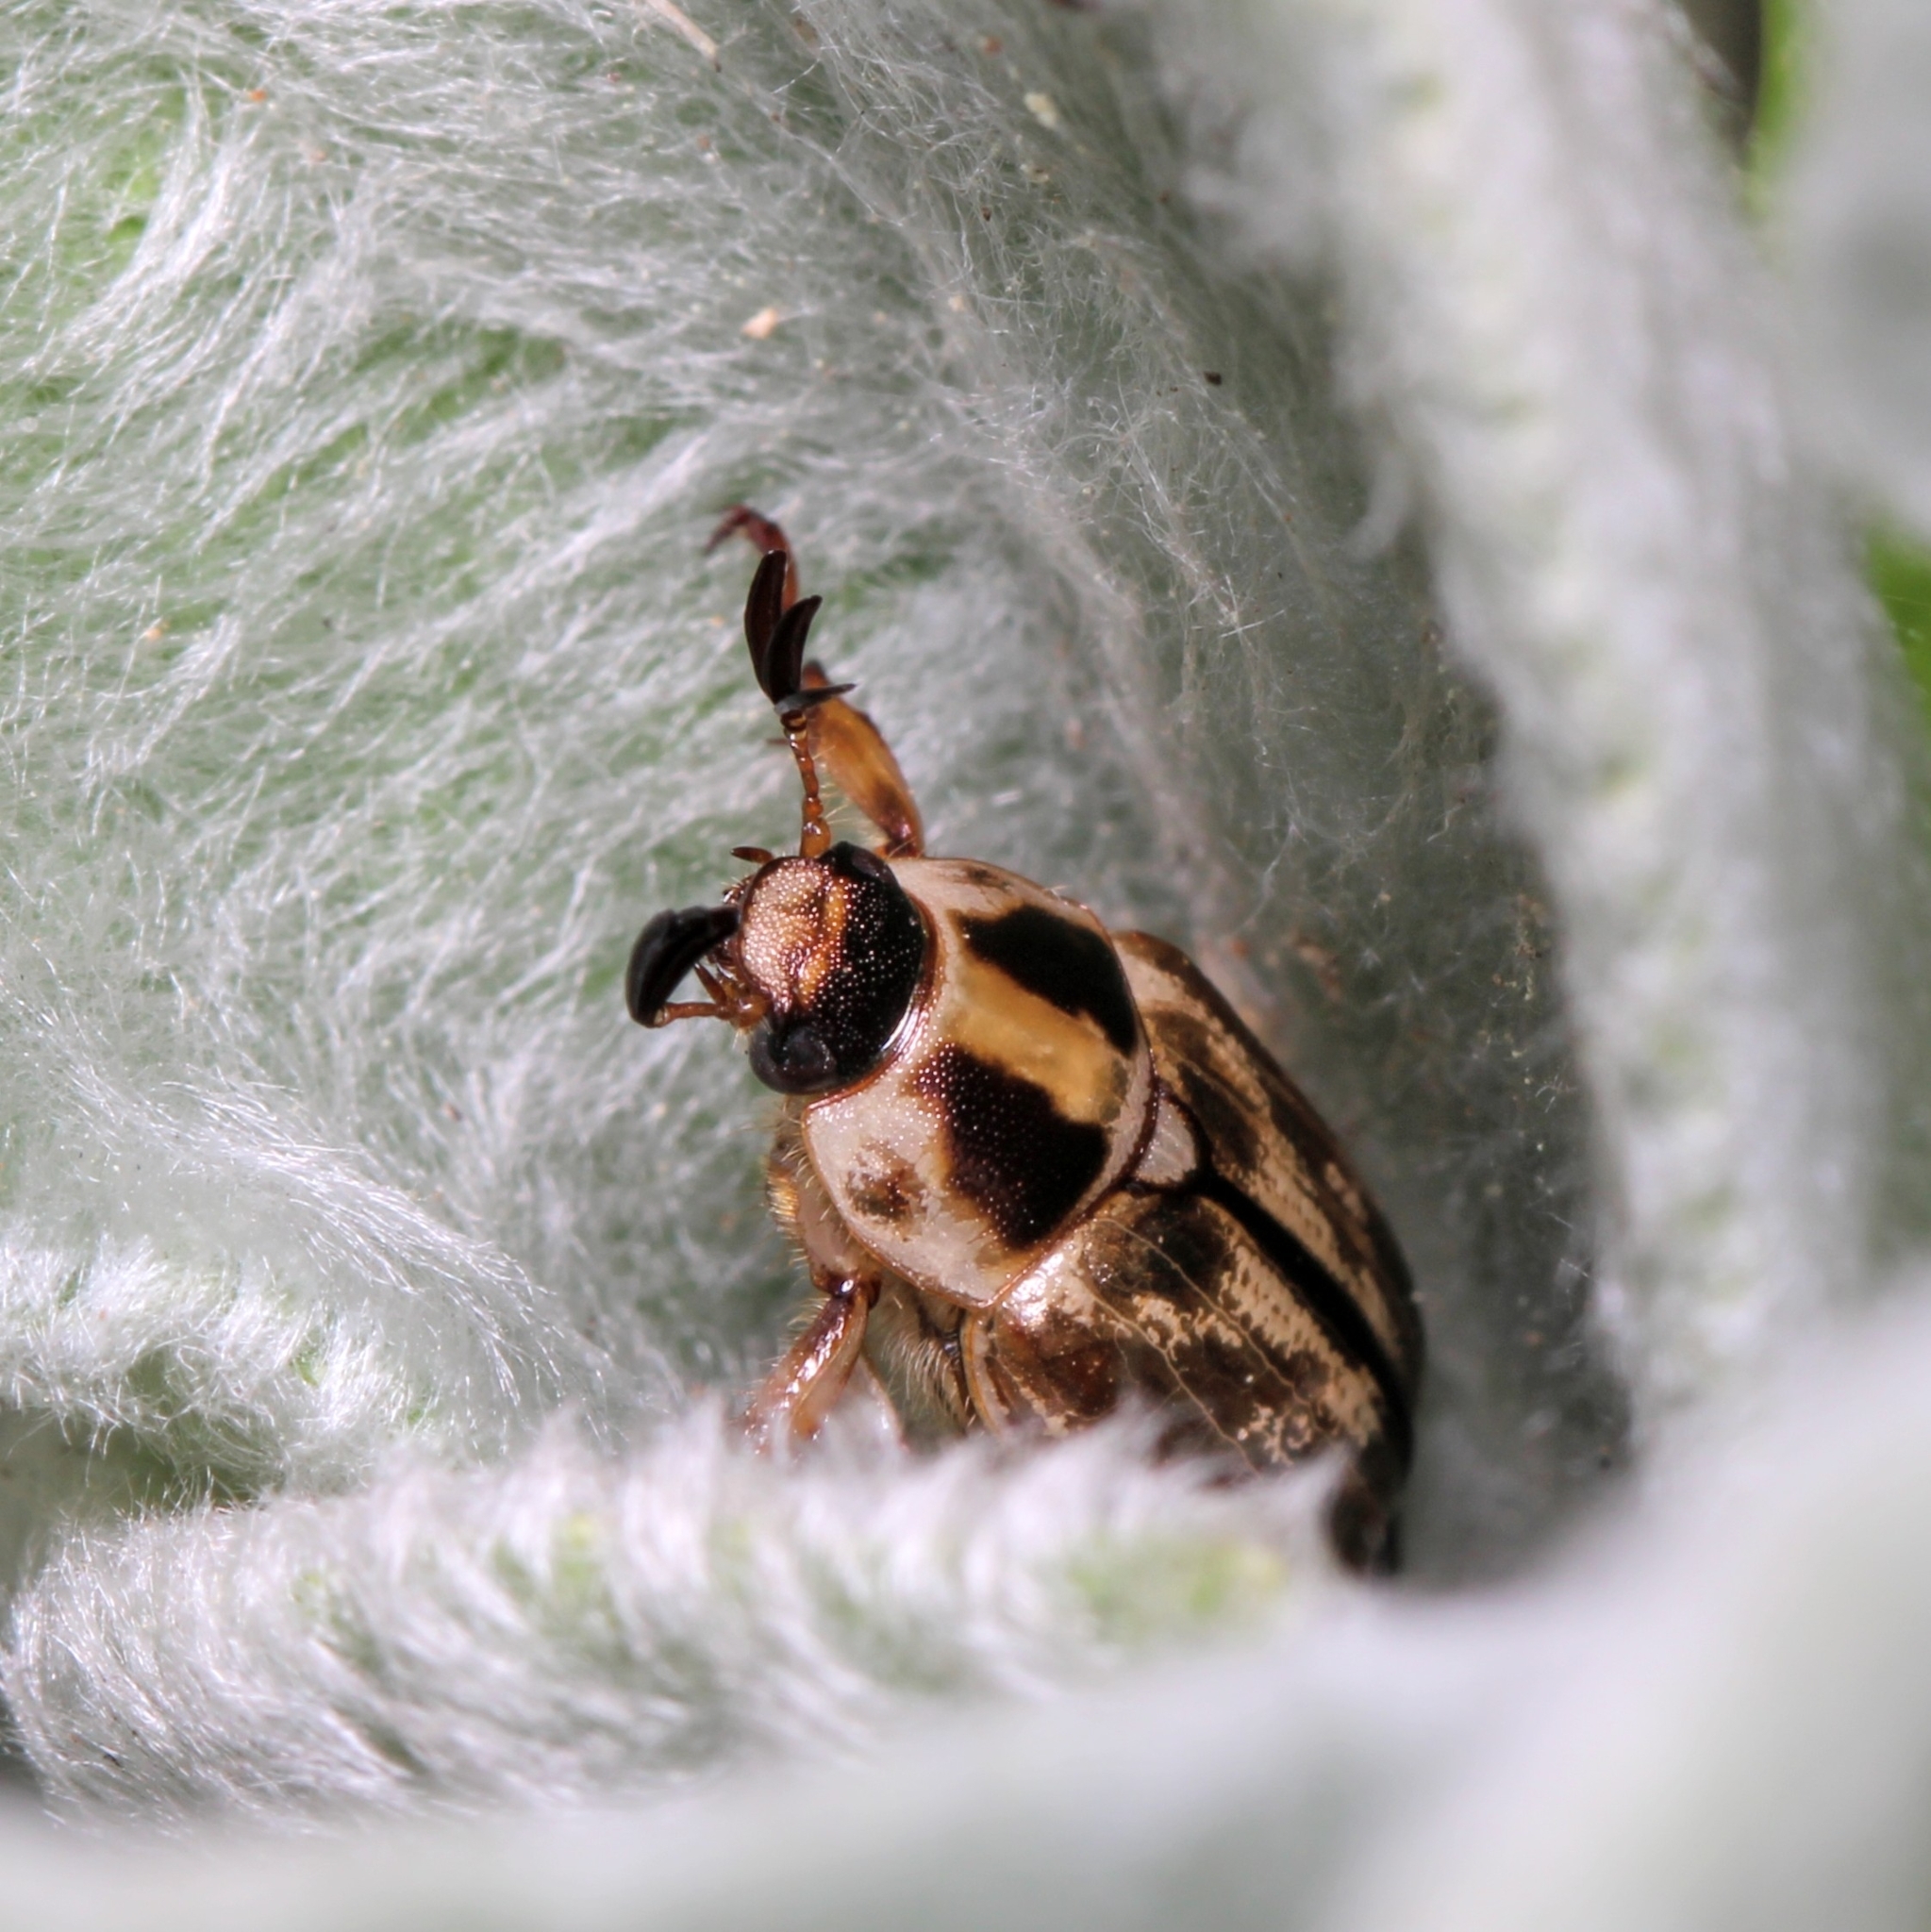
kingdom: Animalia
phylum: Arthropoda
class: Insecta
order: Coleoptera
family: Scarabaeidae
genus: Exomala
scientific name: Exomala orientalis
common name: Oriental beetle
